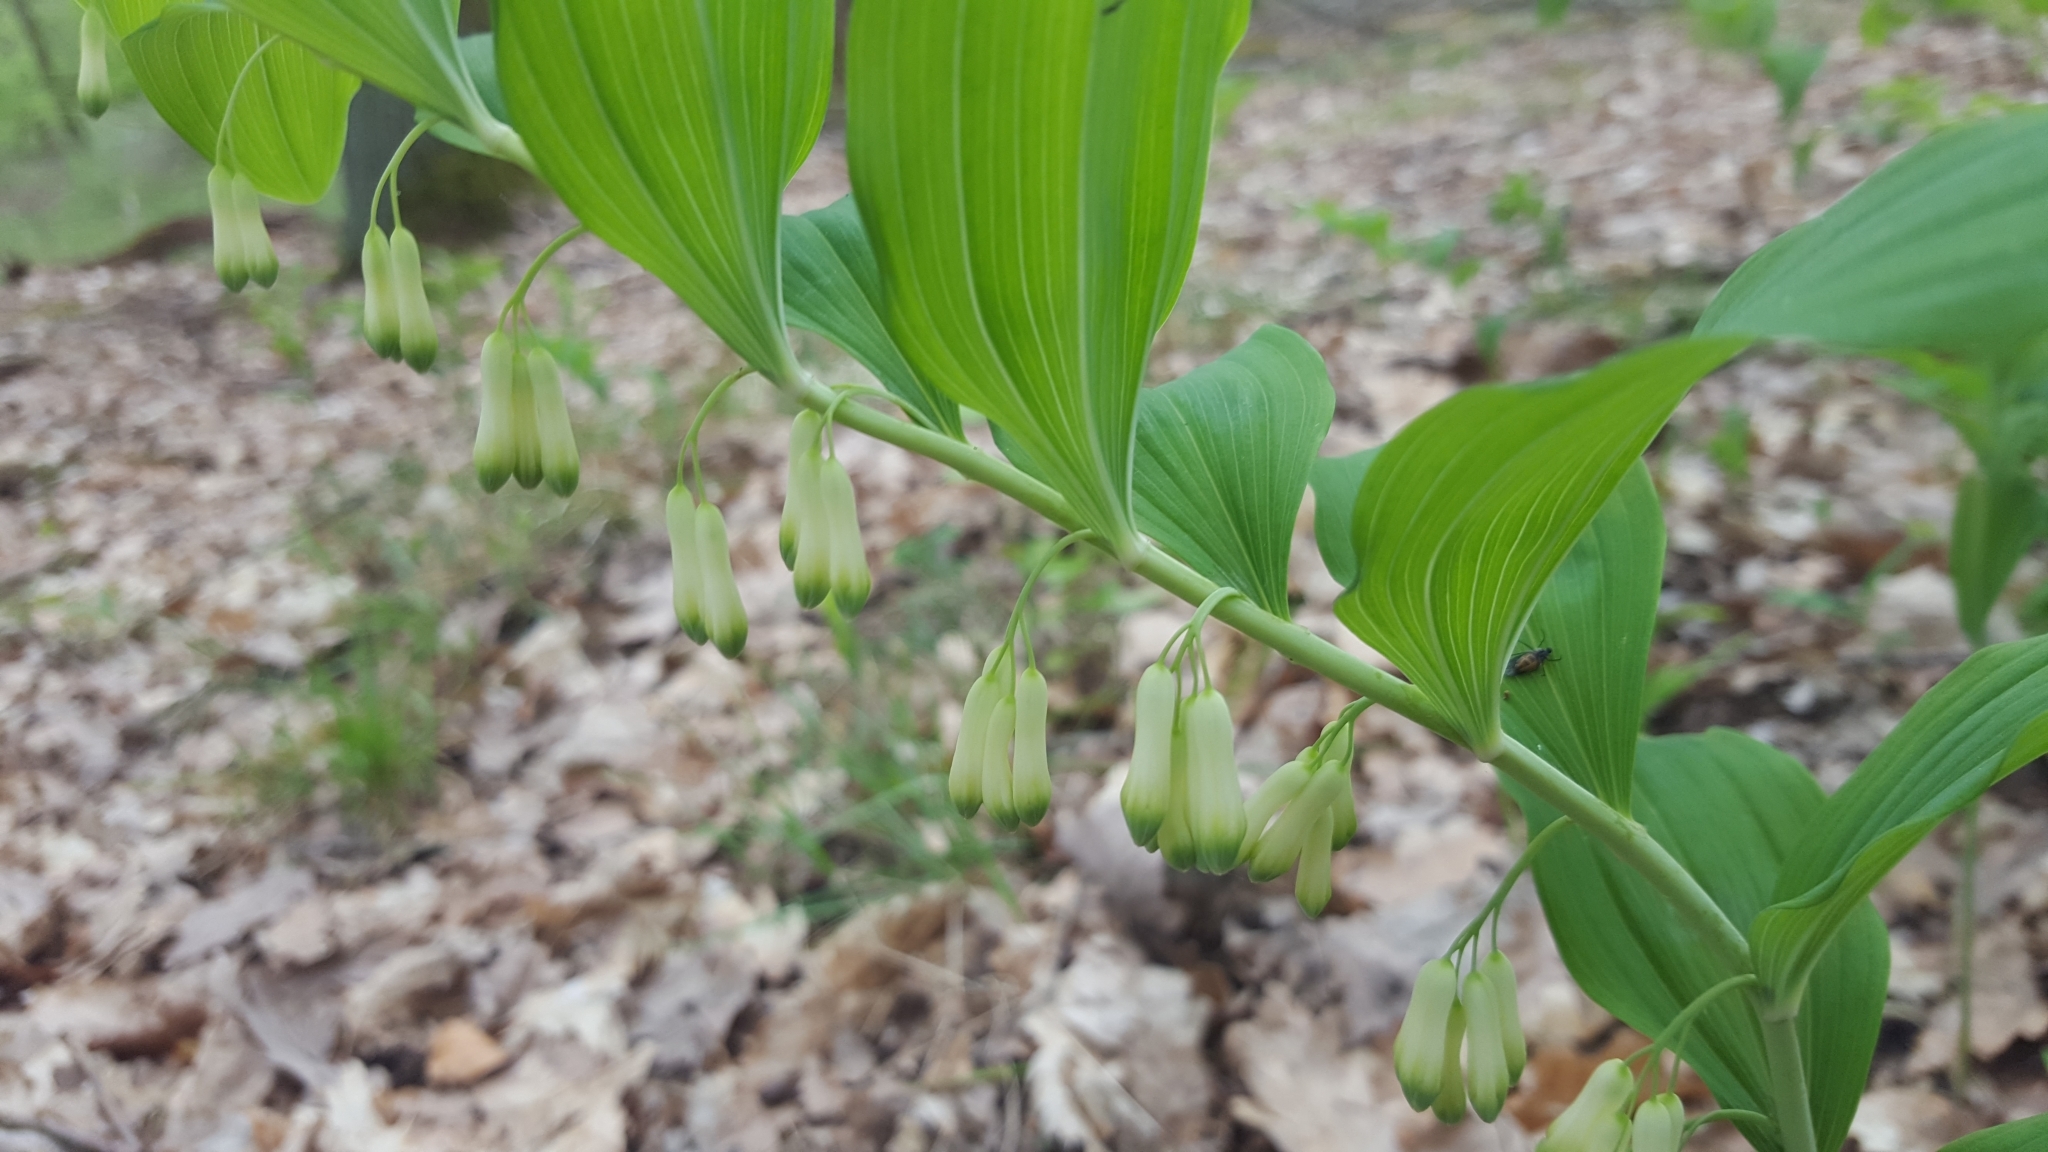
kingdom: Plantae
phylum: Tracheophyta
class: Liliopsida
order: Asparagales
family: Asparagaceae
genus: Polygonatum
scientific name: Polygonatum multiflorum
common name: Solomon's-seal
